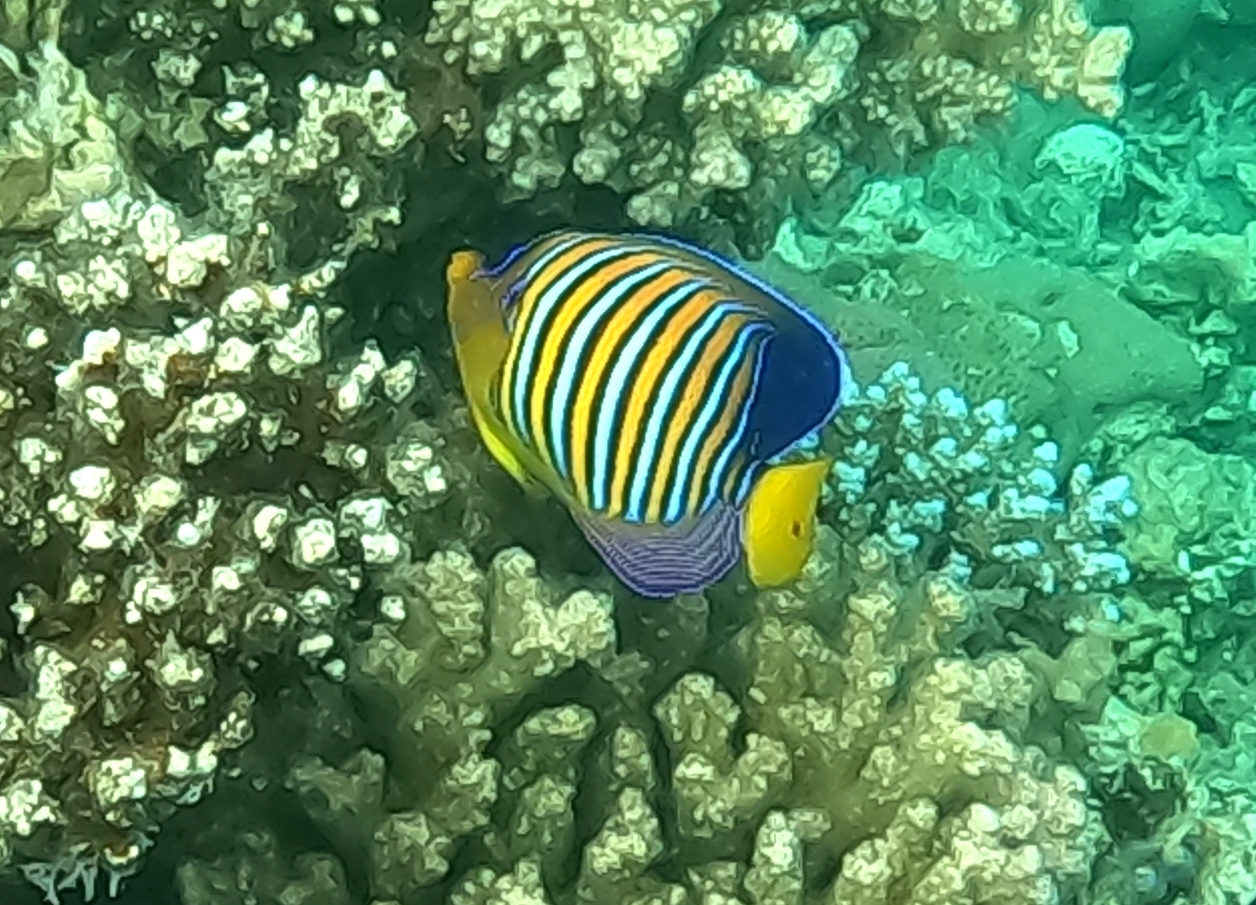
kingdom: Animalia
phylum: Chordata
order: Perciformes
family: Pomacanthidae
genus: Pygoplites
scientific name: Pygoplites diacanthus
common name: Regal angelfish
